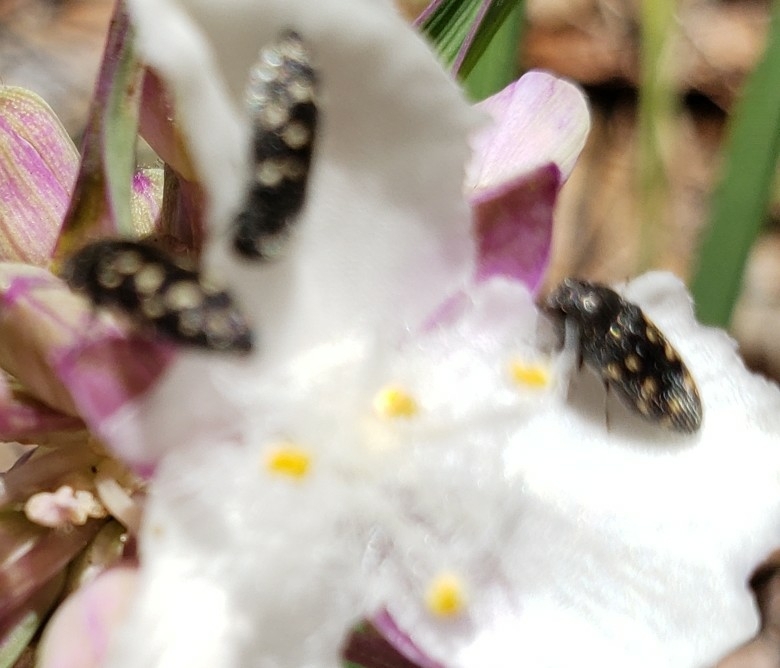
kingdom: Animalia
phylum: Arthropoda
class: Insecta
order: Coleoptera
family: Buprestidae
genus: Acmaeodera
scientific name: Acmaeodera tubulus
